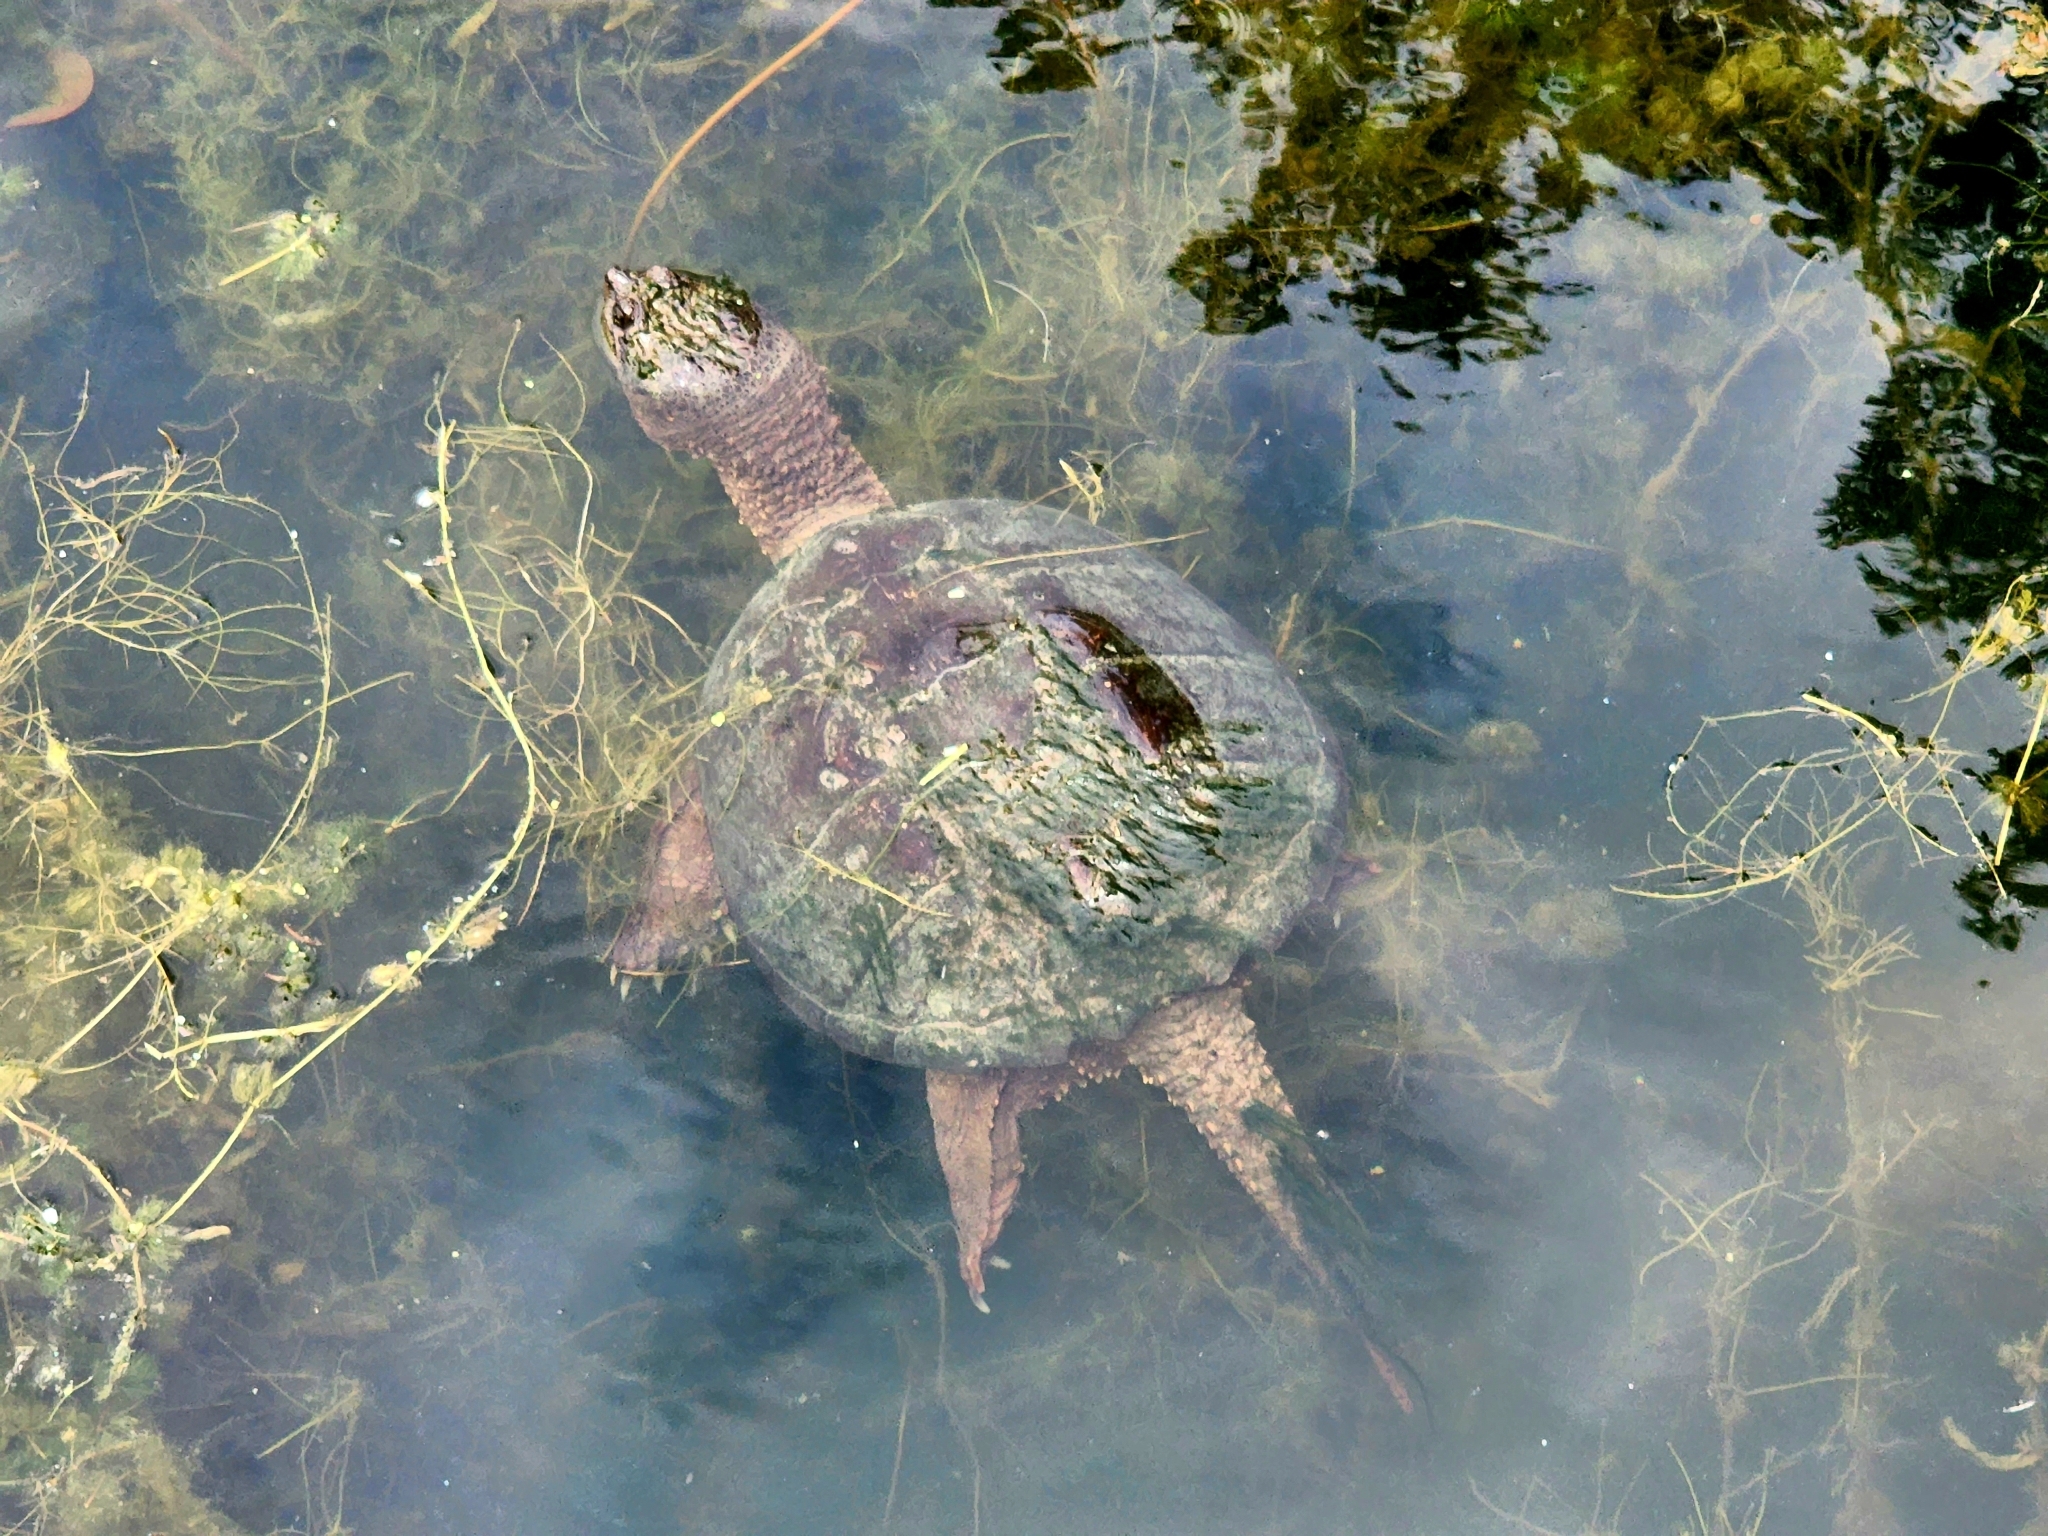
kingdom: Animalia
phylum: Chordata
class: Testudines
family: Chelydridae
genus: Chelydra
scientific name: Chelydra serpentina
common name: Common snapping turtle
